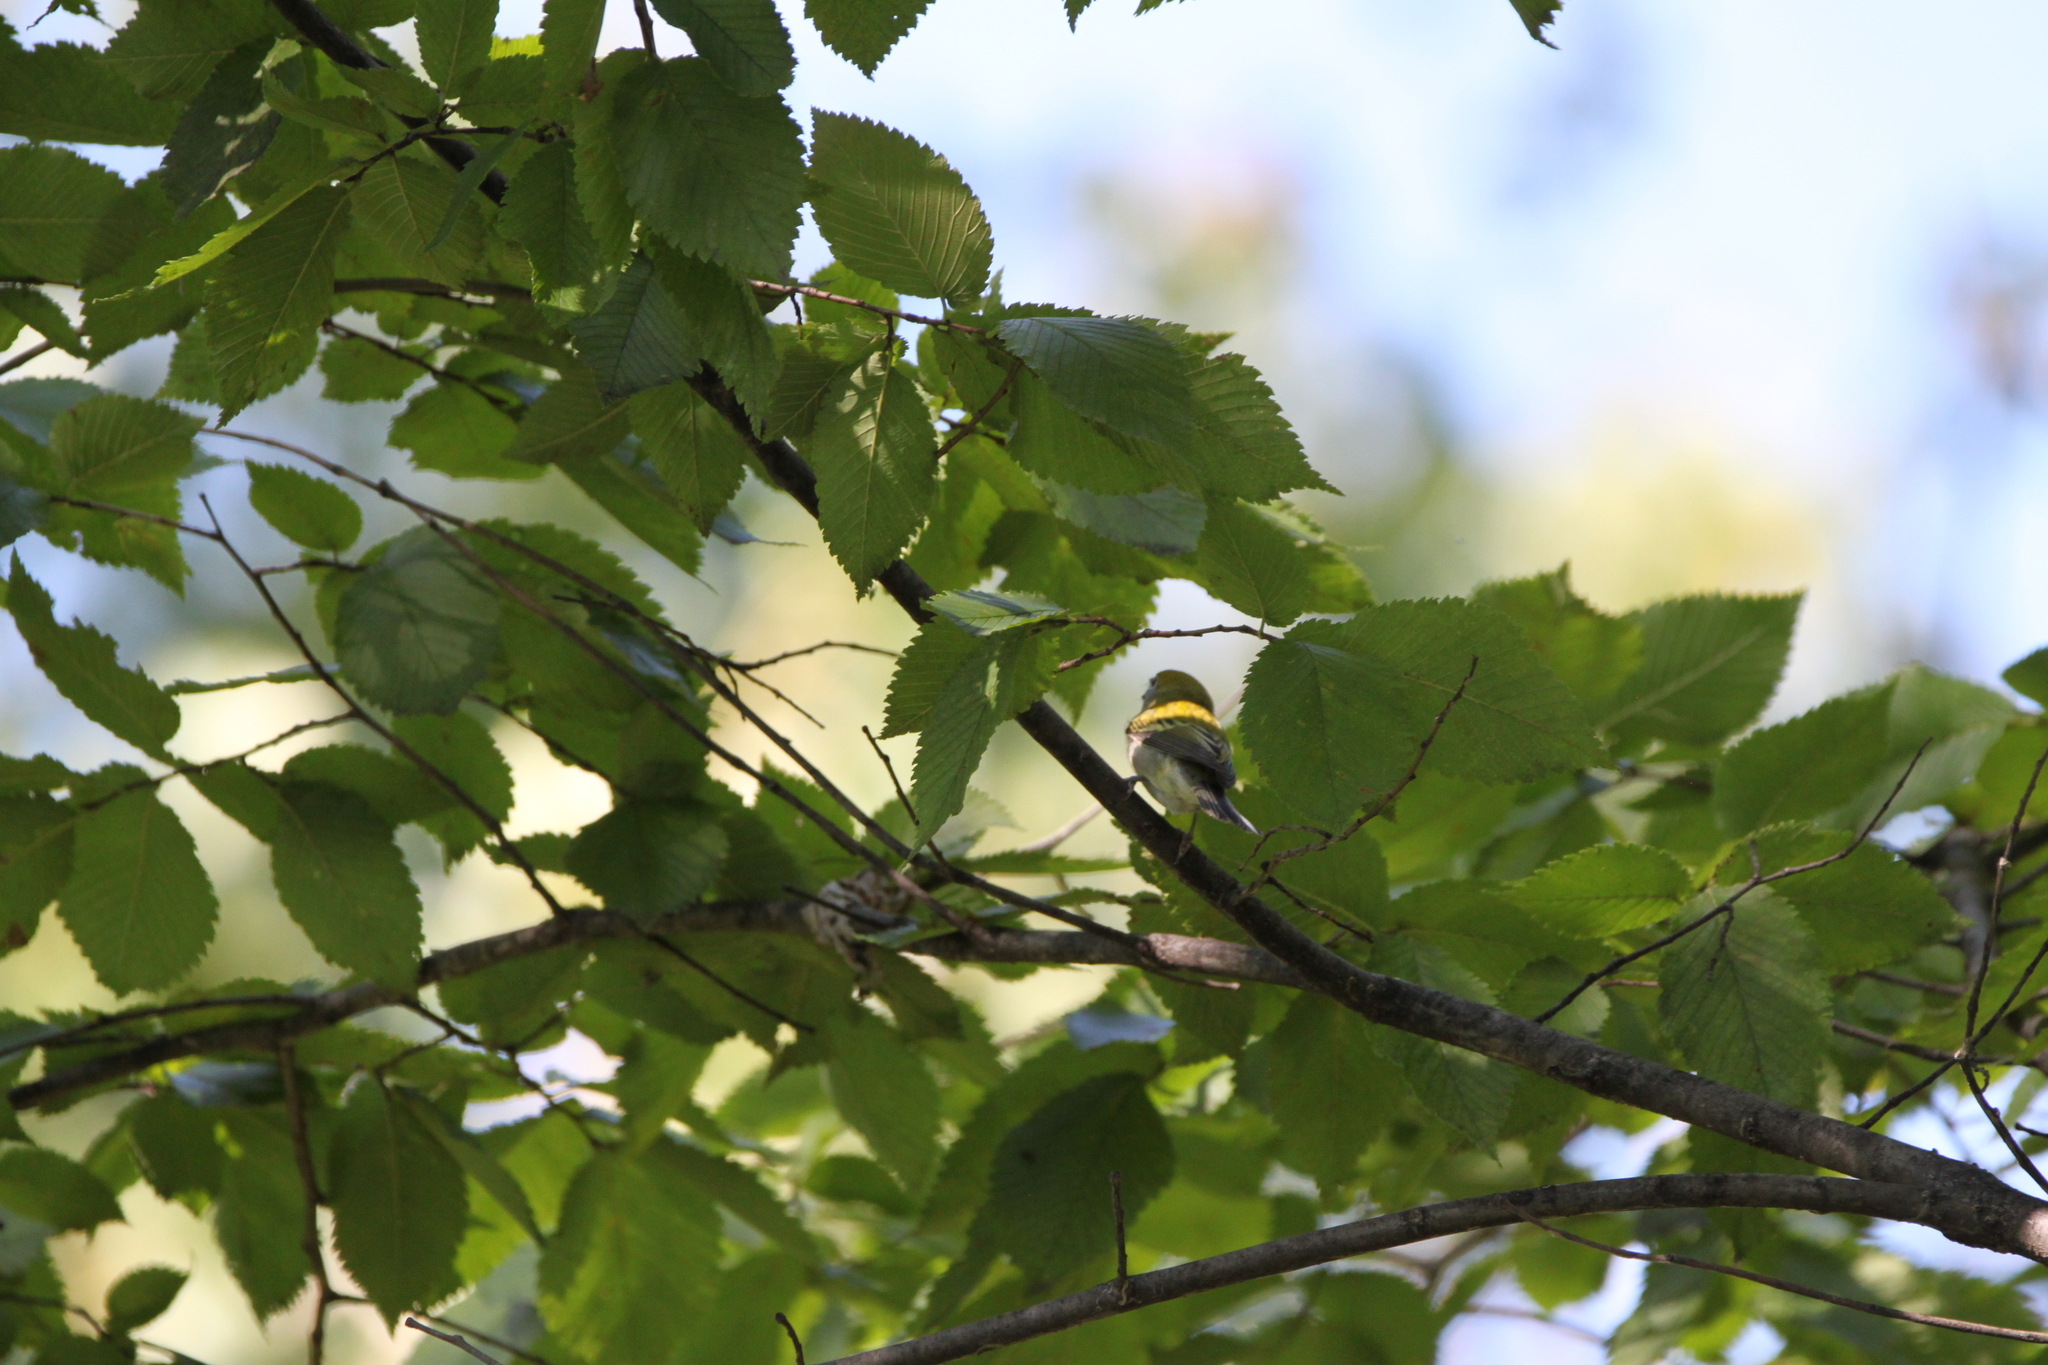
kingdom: Animalia
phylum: Chordata
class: Aves
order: Passeriformes
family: Parulidae
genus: Setophaga
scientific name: Setophaga pensylvanica
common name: Chestnut-sided warbler
